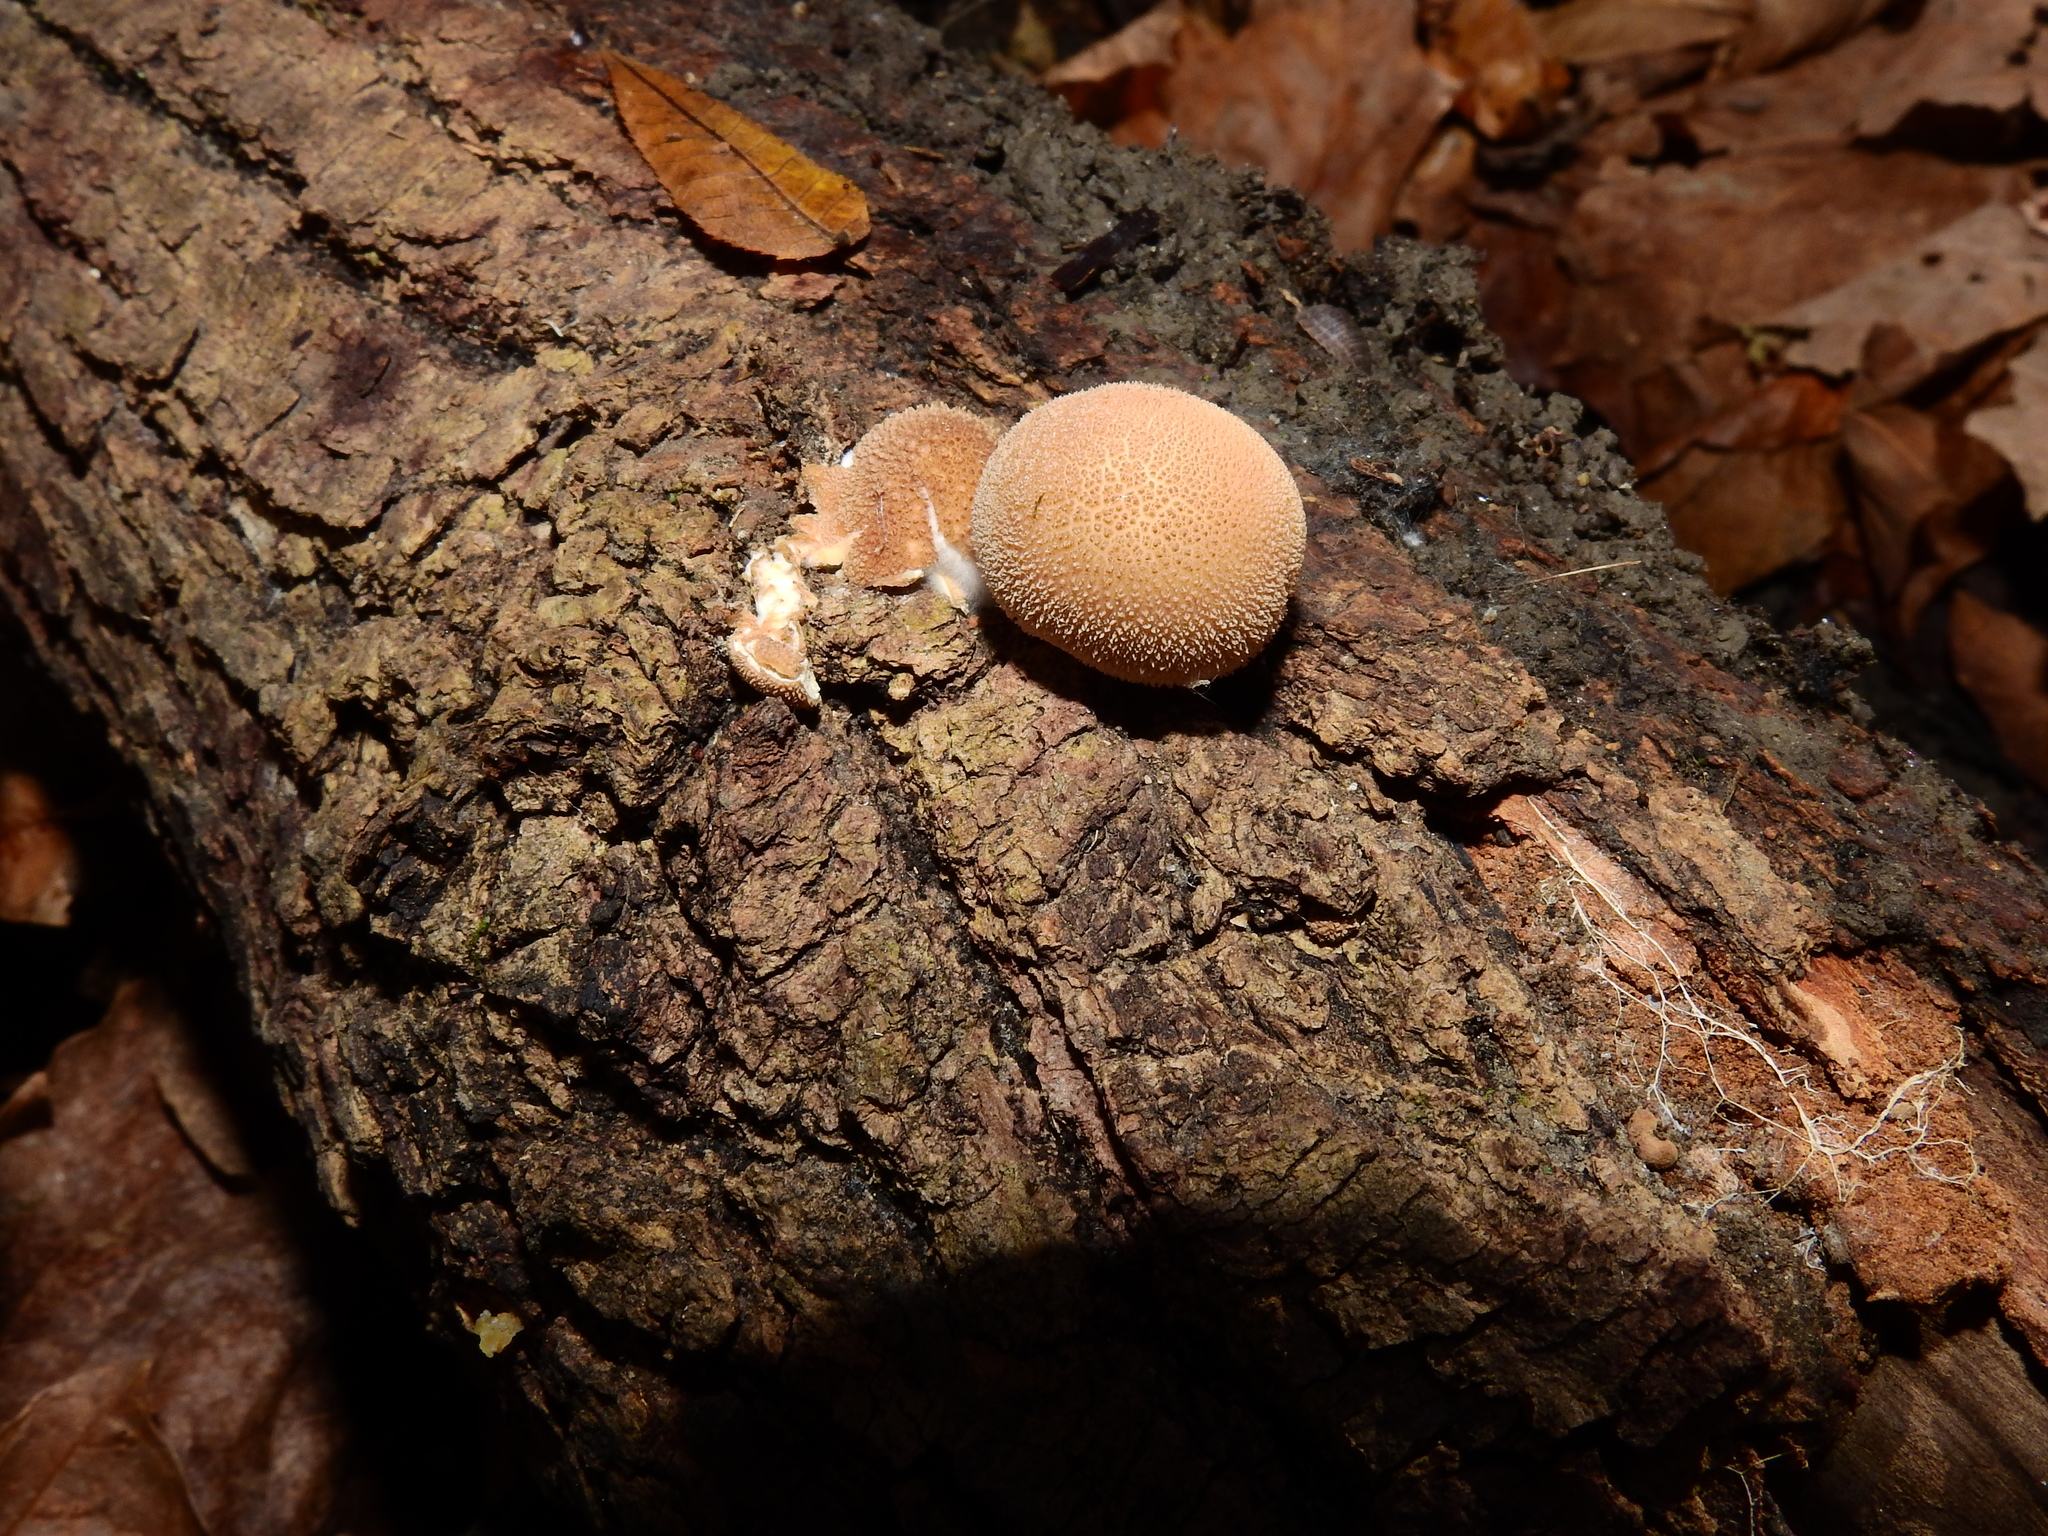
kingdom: Fungi
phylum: Basidiomycota
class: Agaricomycetes
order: Agaricales
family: Lycoperdaceae
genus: Apioperdon
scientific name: Apioperdon pyriforme
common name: Pear-shaped puffball
